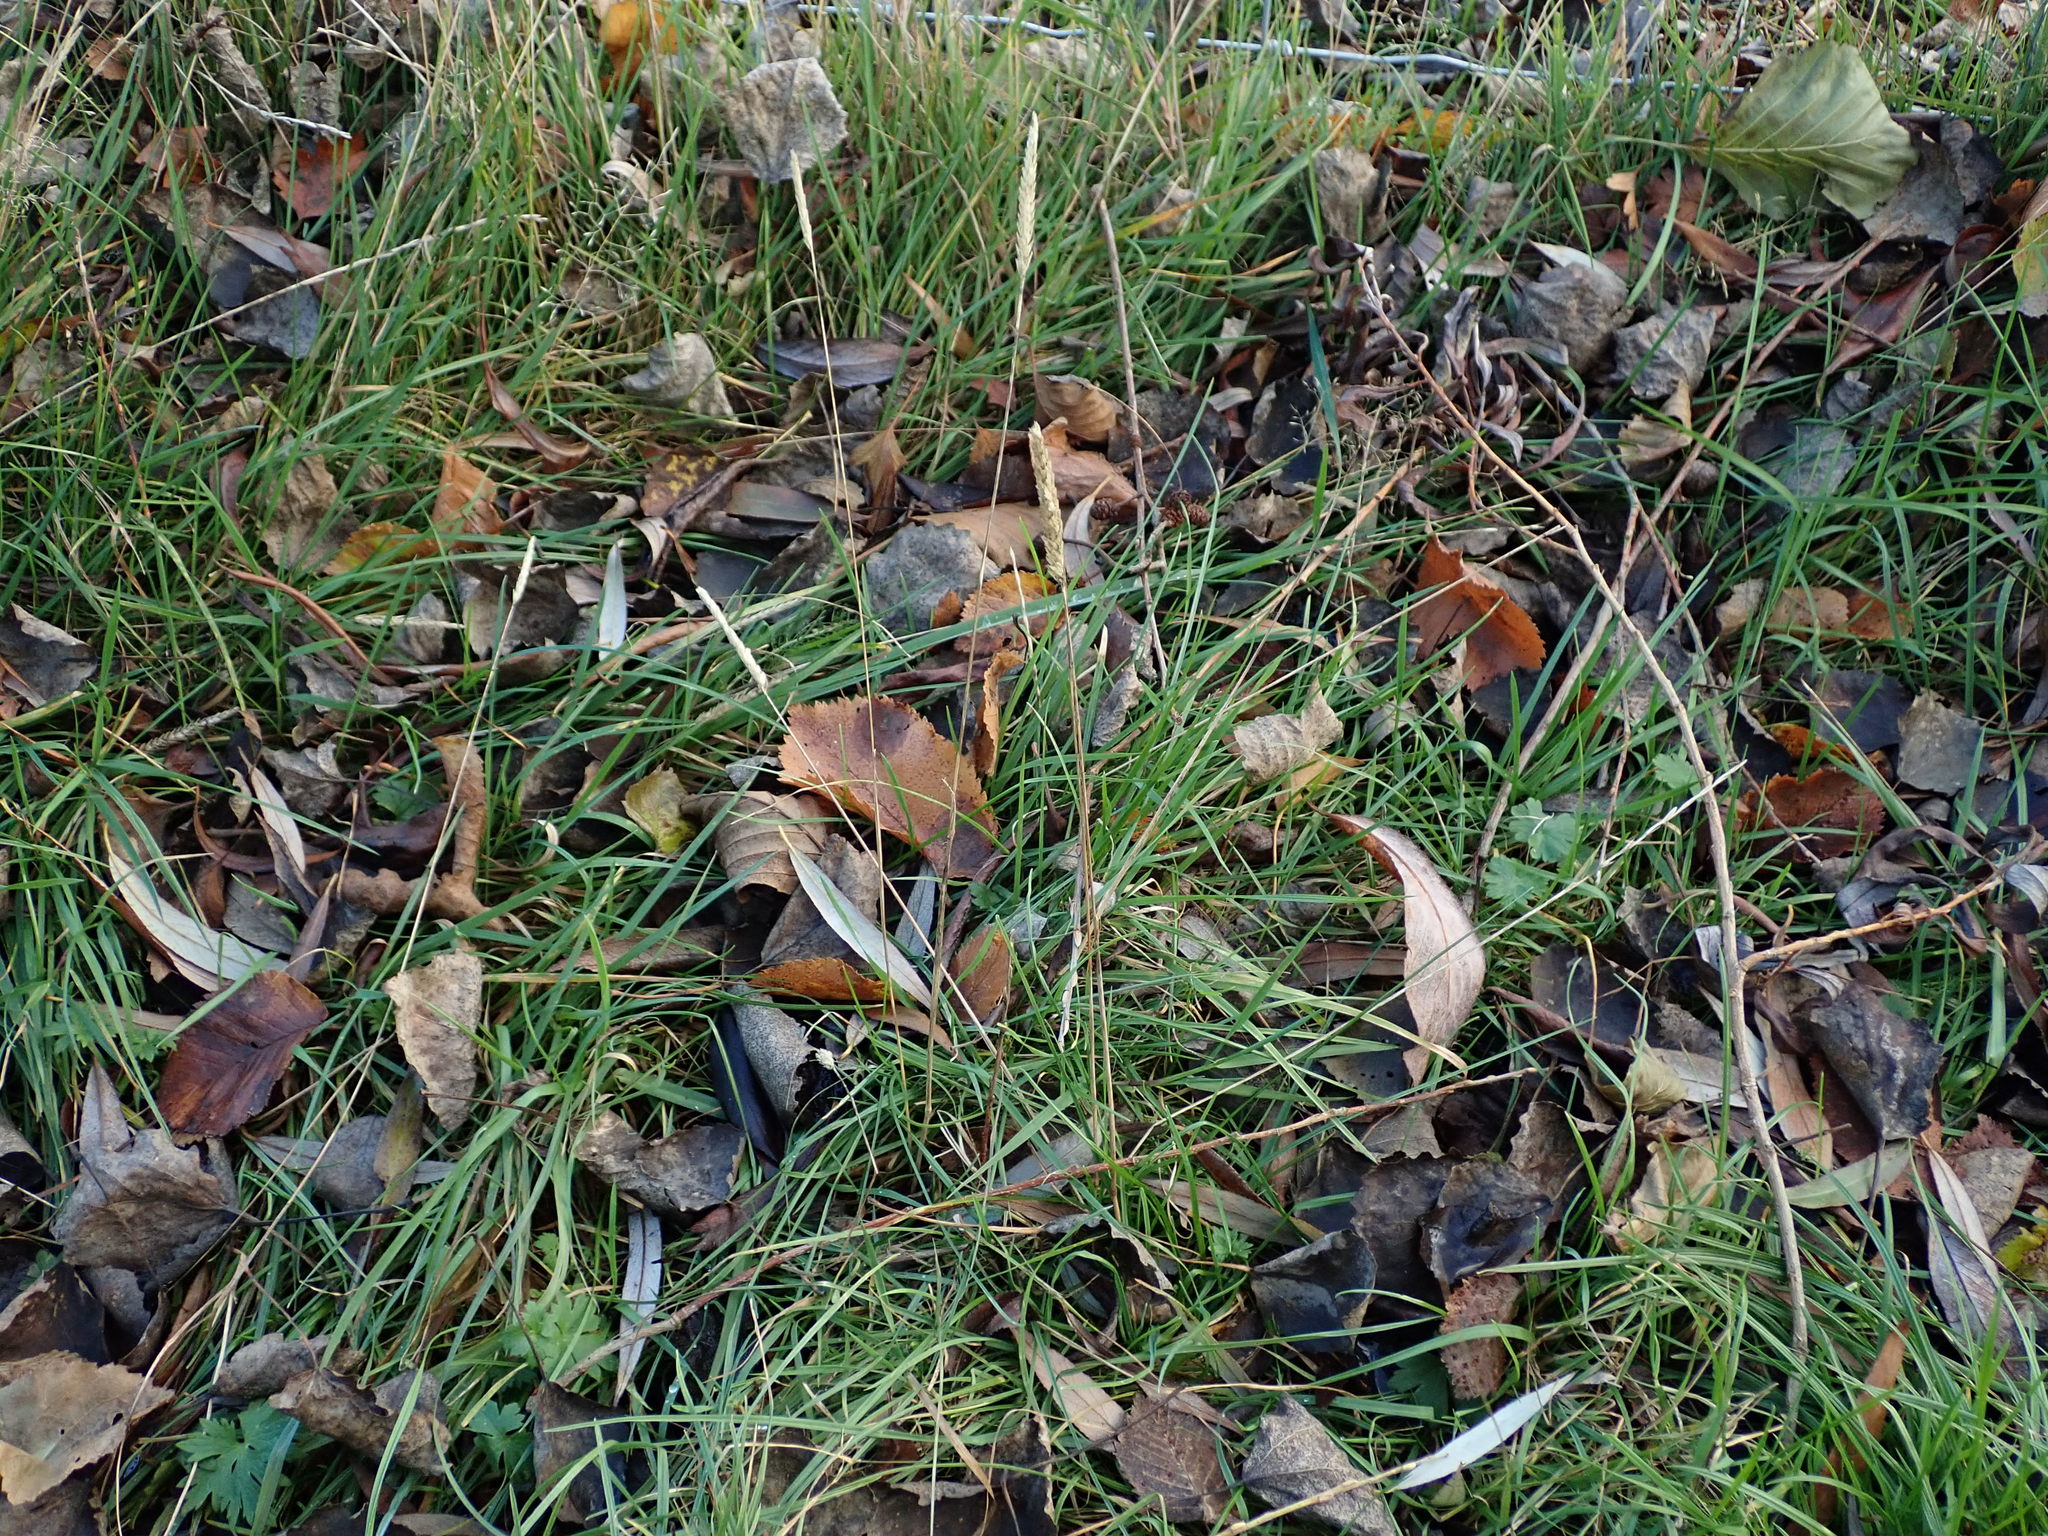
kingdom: Plantae
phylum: Tracheophyta
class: Liliopsida
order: Poales
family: Poaceae
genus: Cynosurus
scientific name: Cynosurus cristatus
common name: Crested dog's-tail
